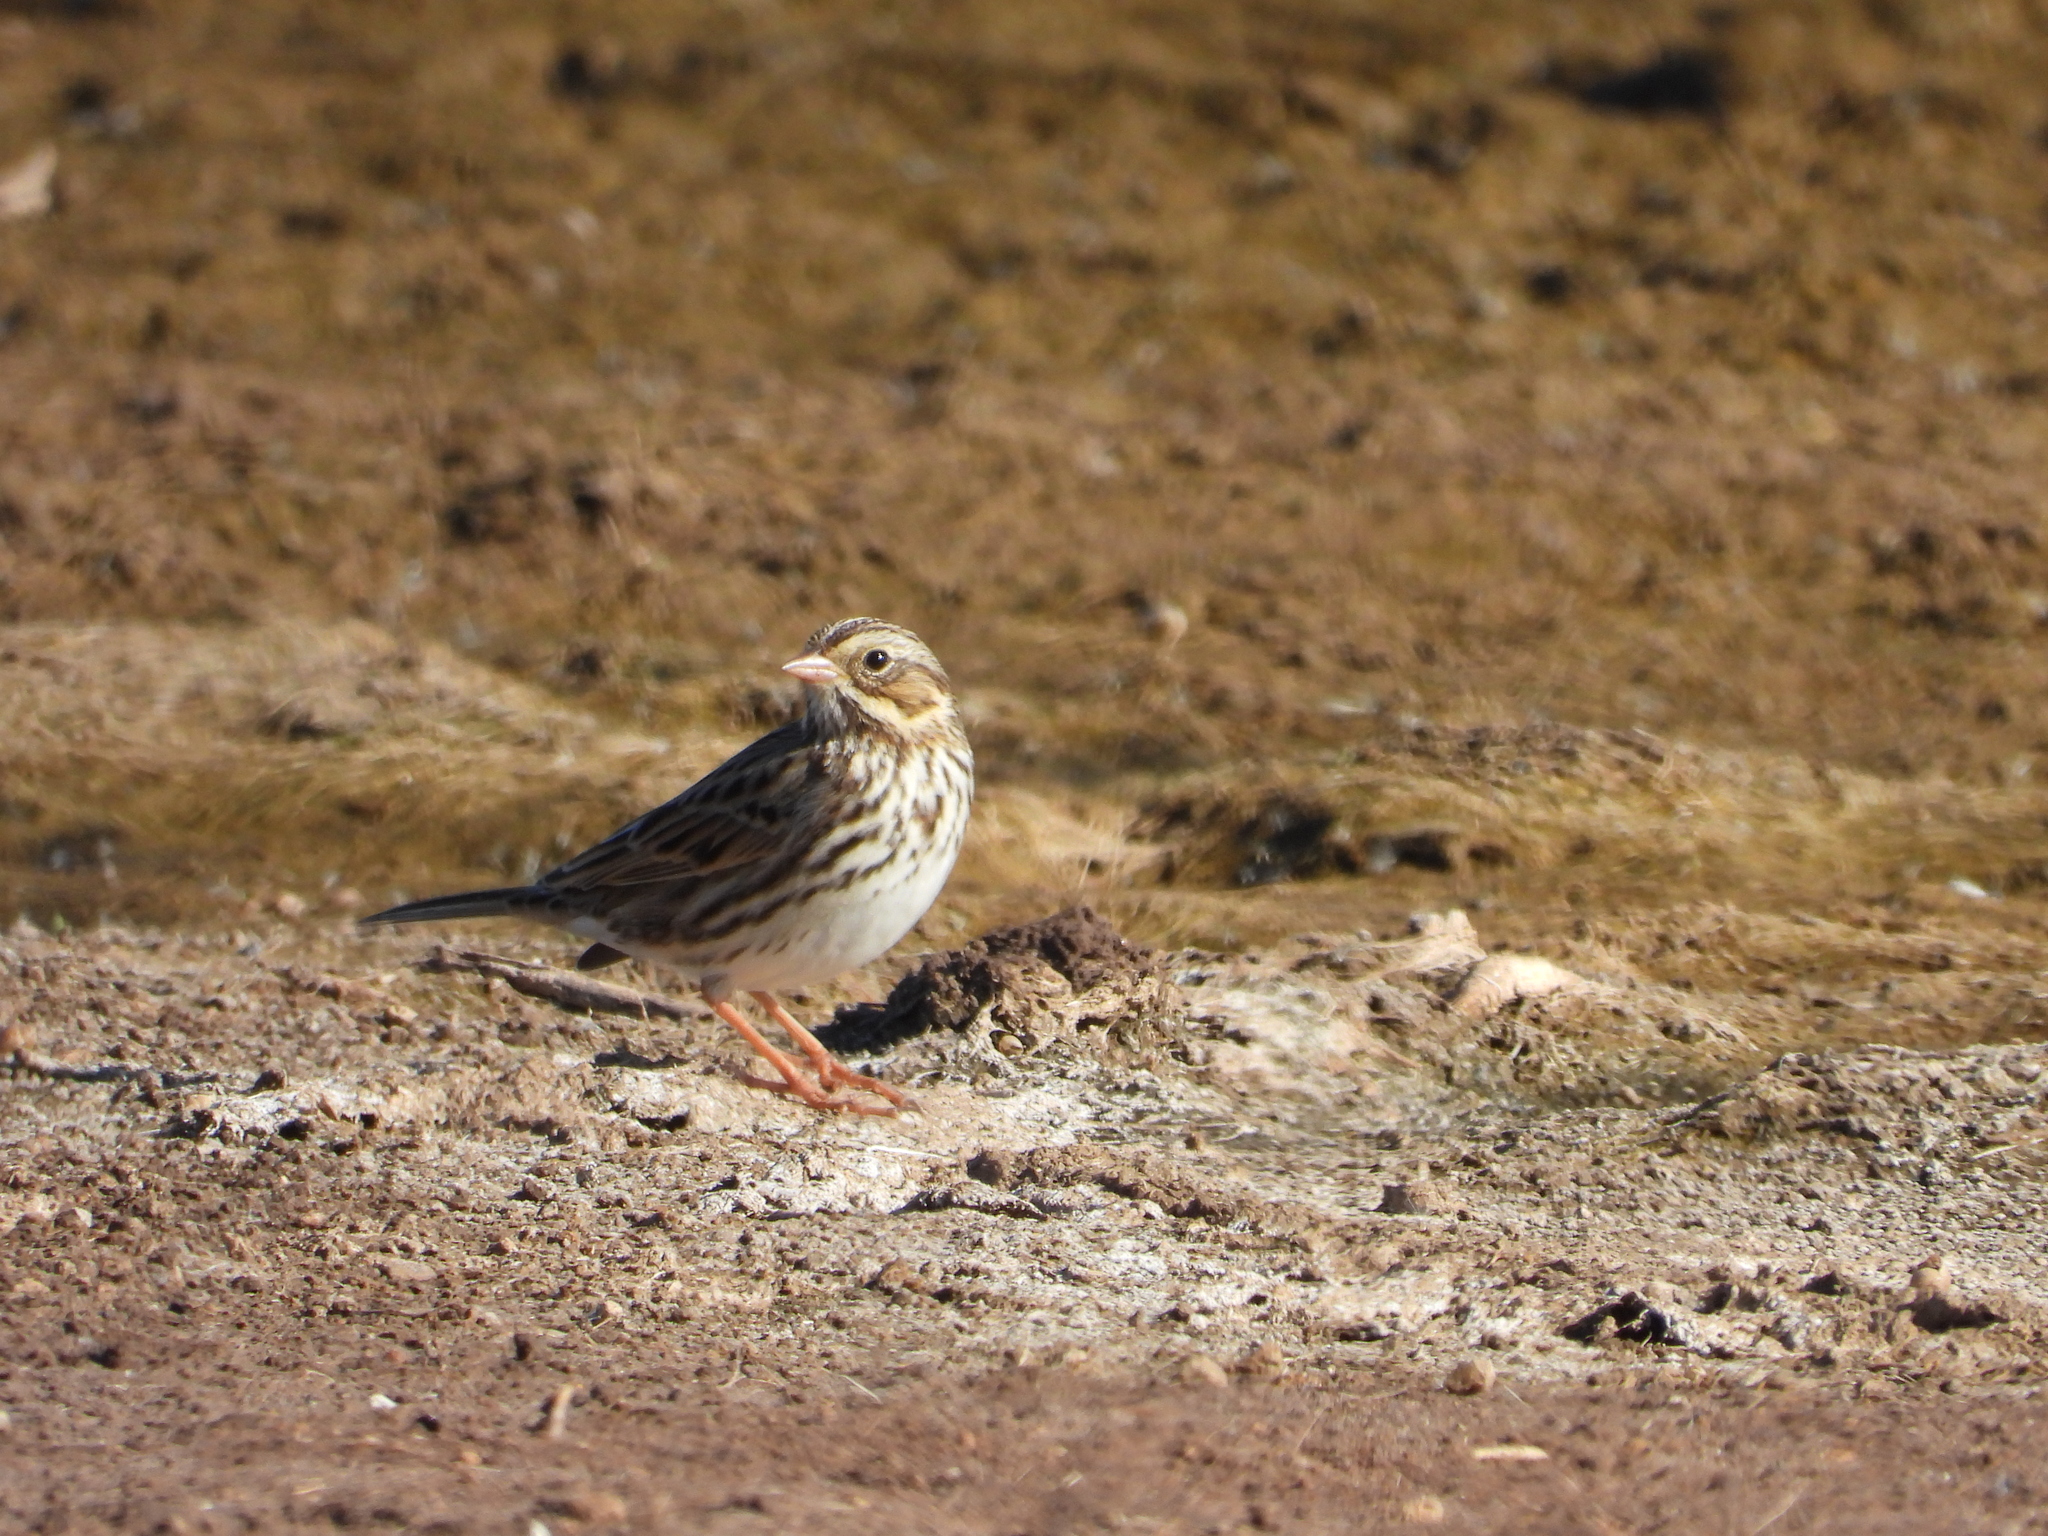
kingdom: Animalia
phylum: Chordata
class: Aves
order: Passeriformes
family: Passerellidae
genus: Passerculus
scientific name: Passerculus sandwichensis
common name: Savannah sparrow
